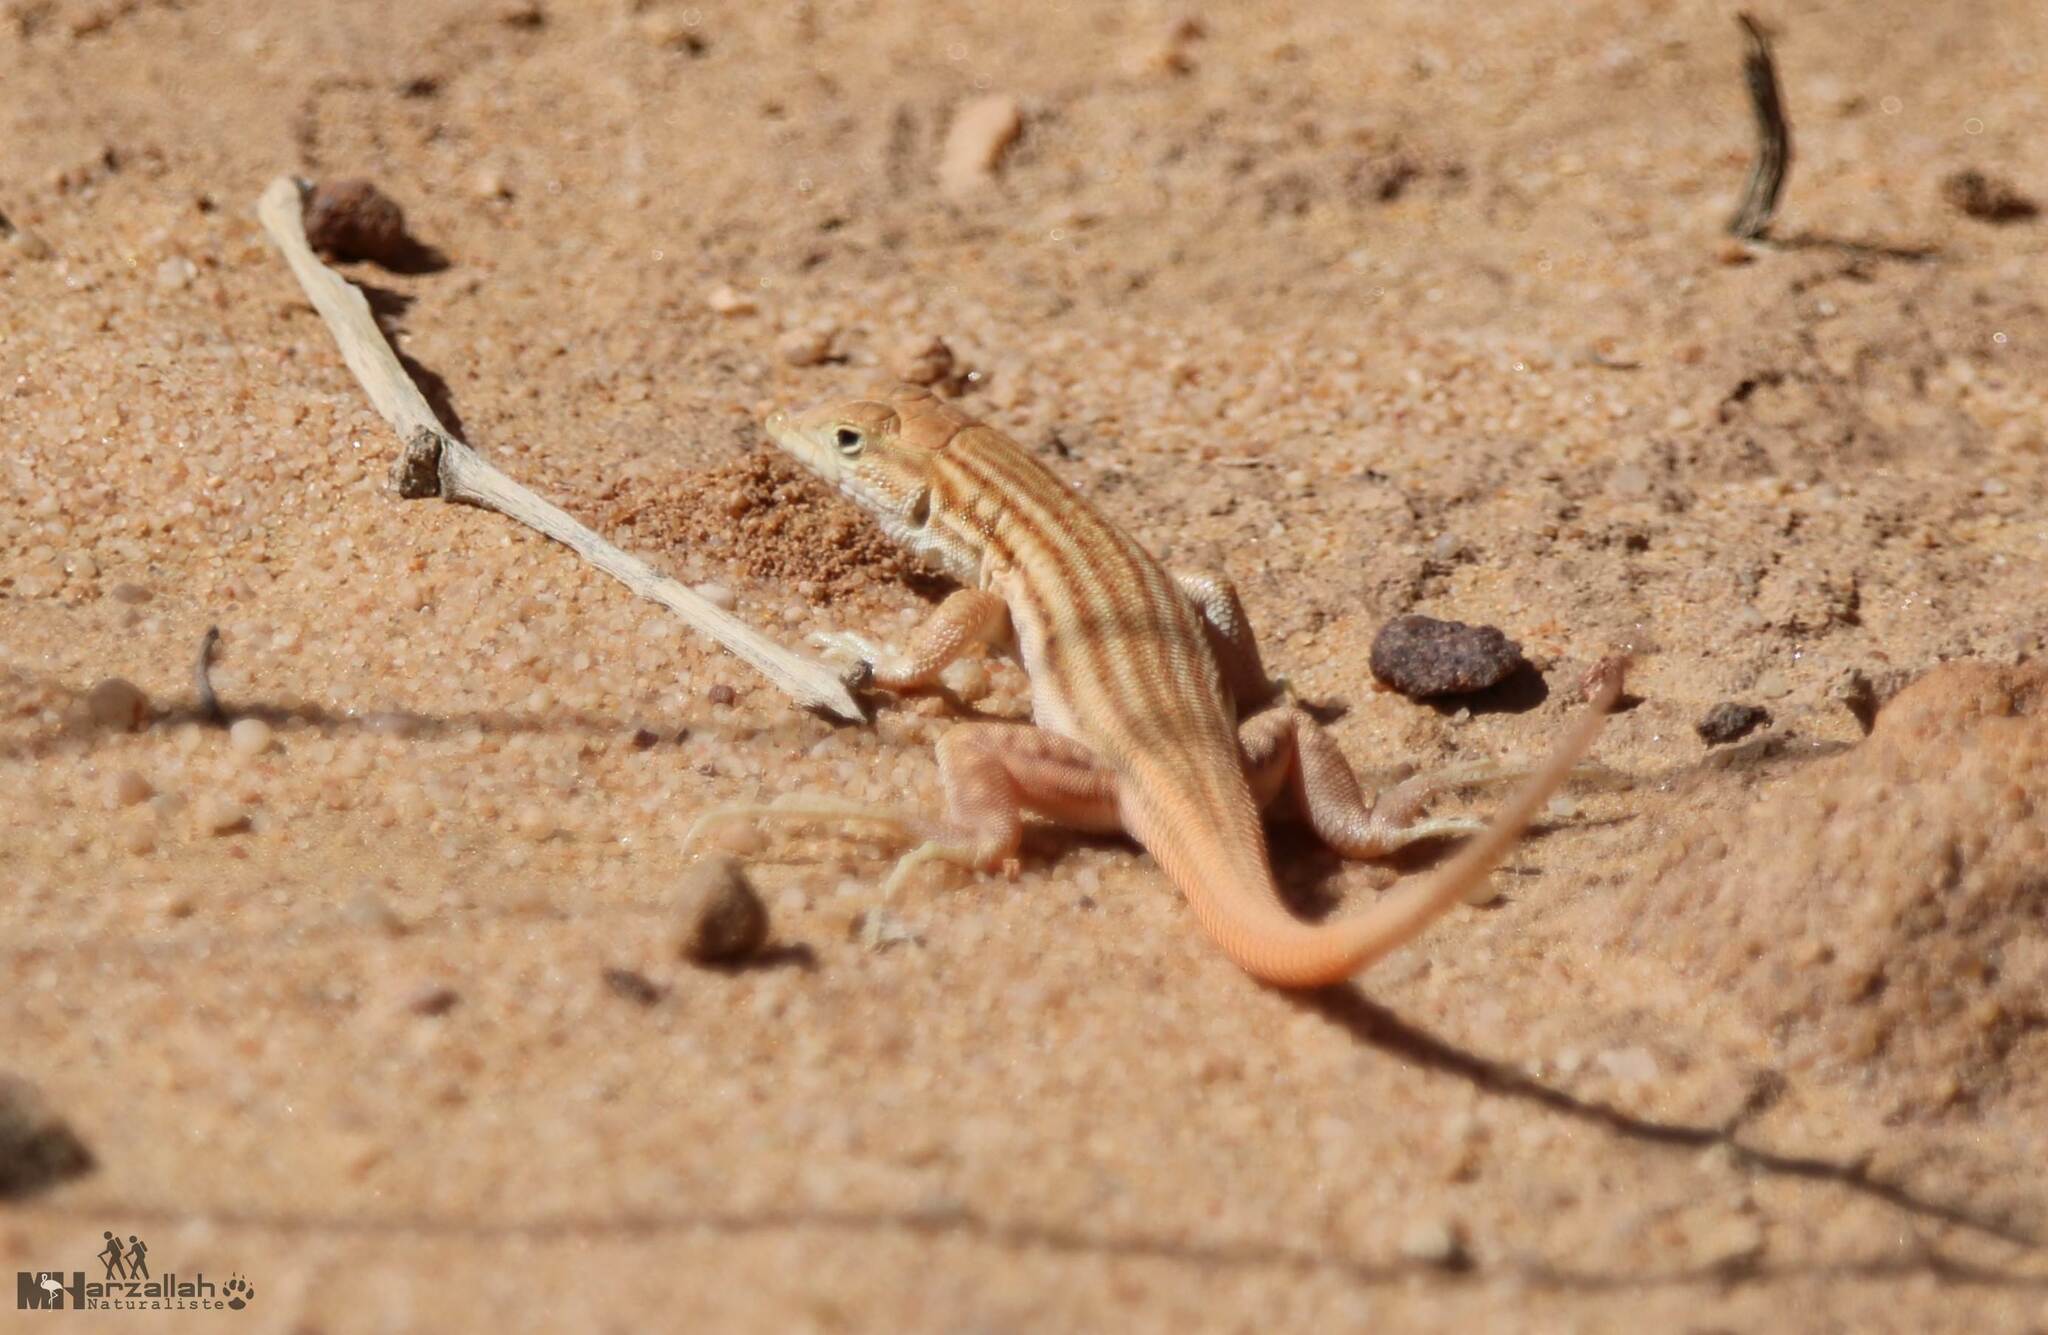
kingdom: Animalia
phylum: Chordata
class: Squamata
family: Lacertidae
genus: Acanthodactylus
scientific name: Acanthodactylus boskianus
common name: Bosc’s fringe-toed lizard
